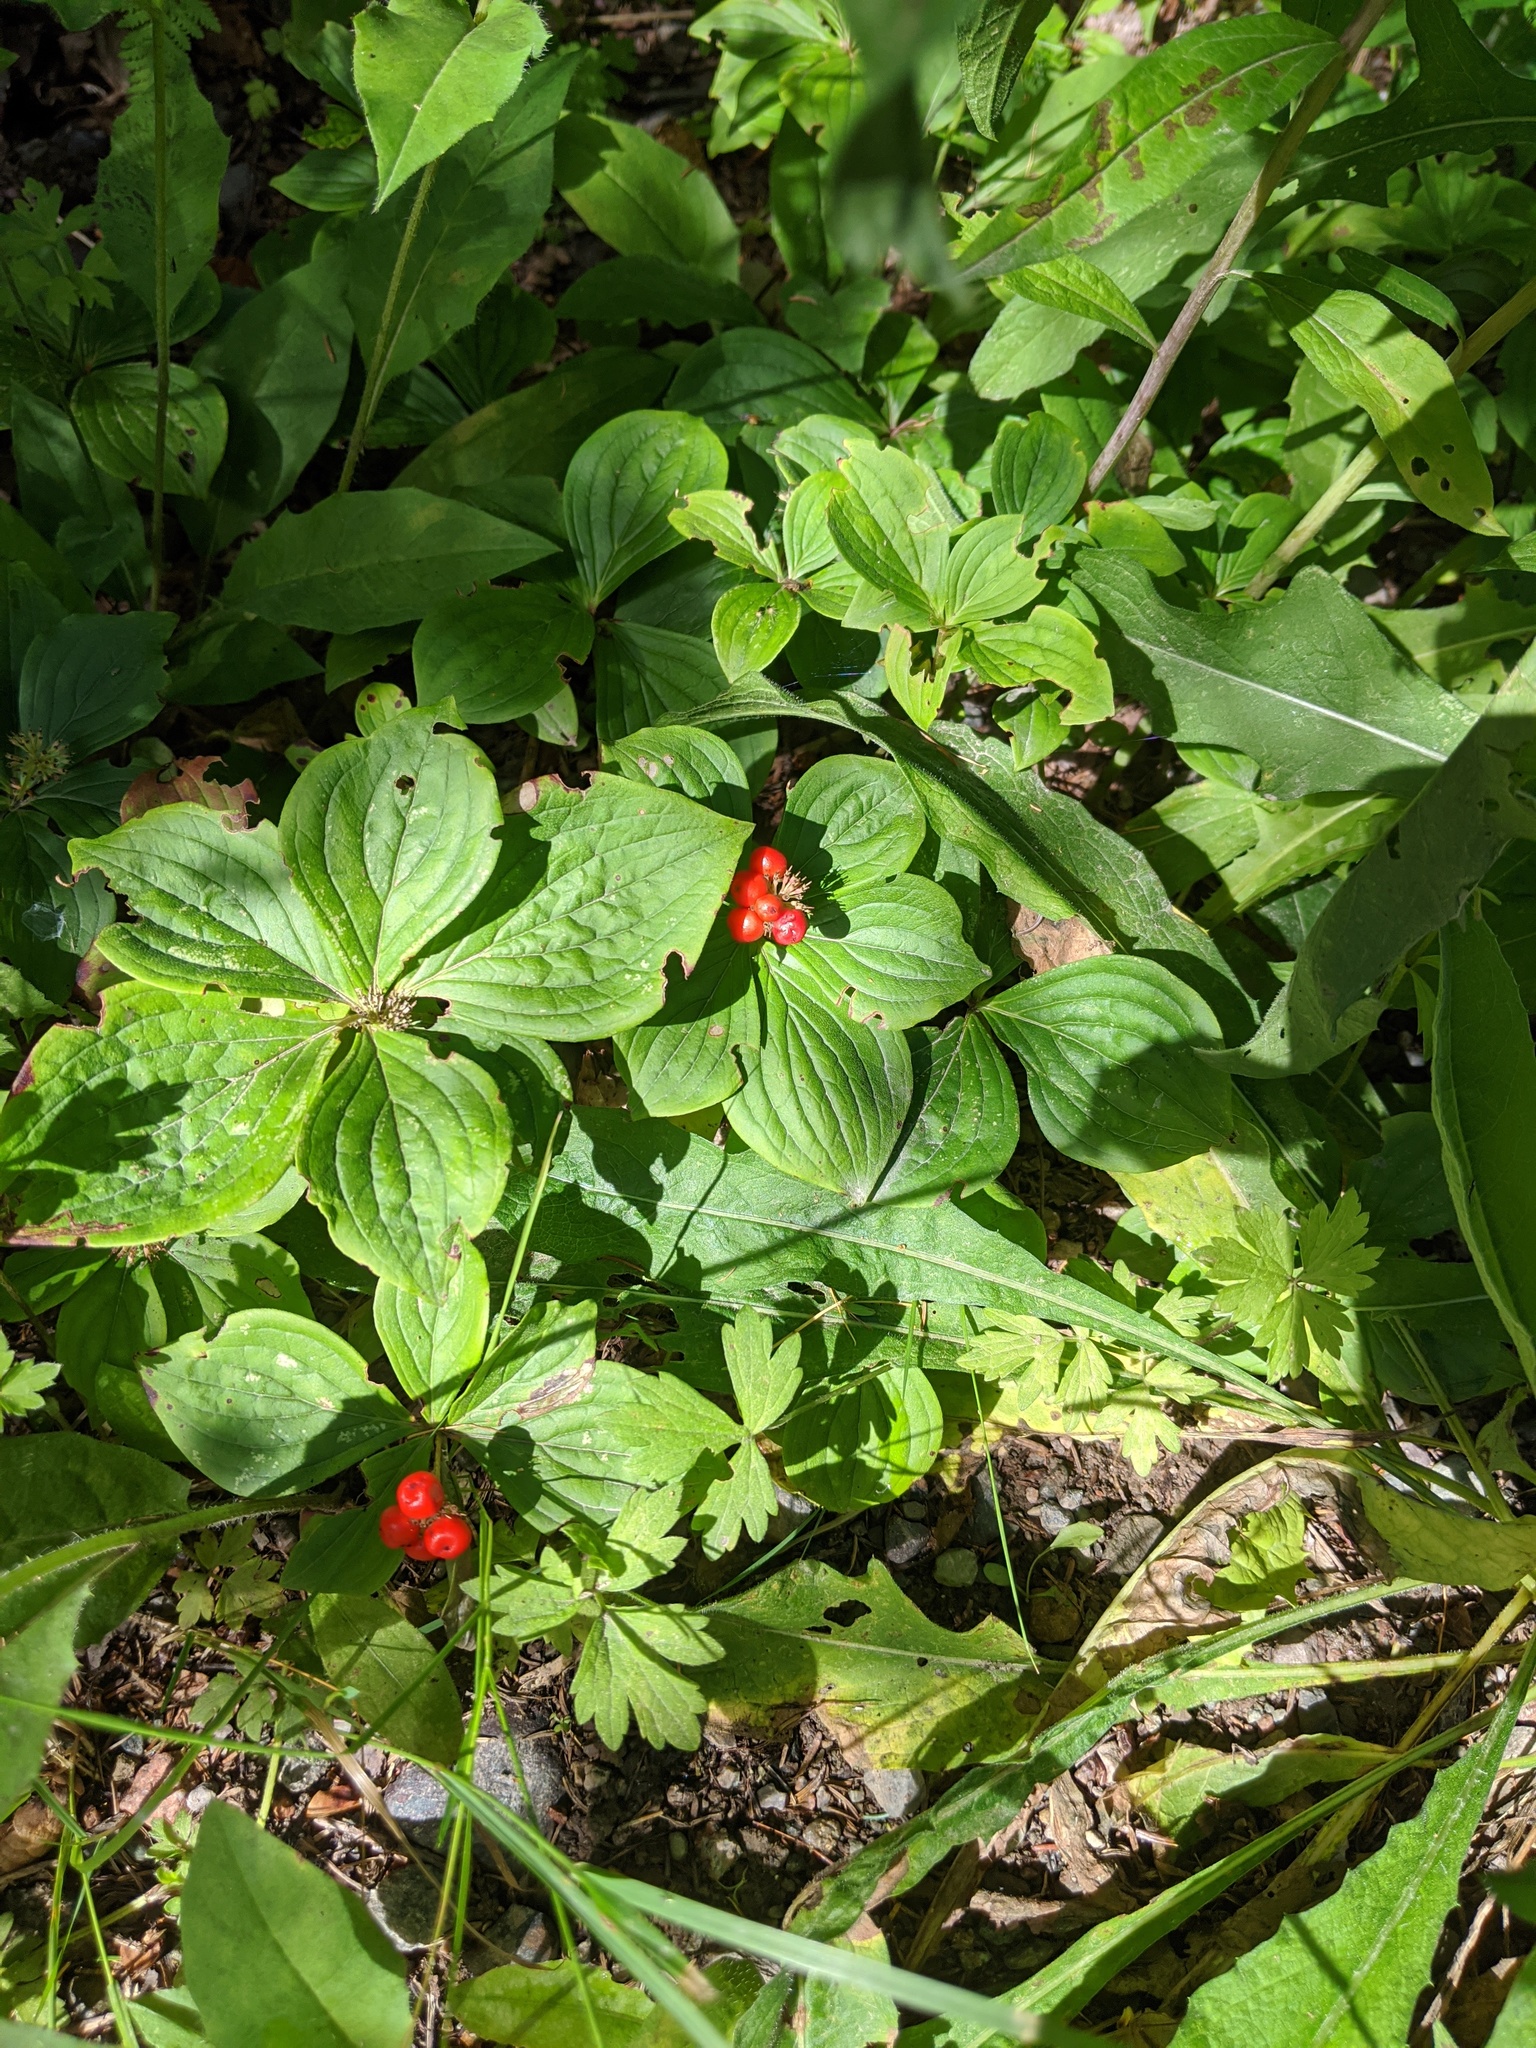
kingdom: Plantae
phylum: Tracheophyta
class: Magnoliopsida
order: Cornales
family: Cornaceae
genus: Cornus
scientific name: Cornus canadensis
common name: Creeping dogwood
